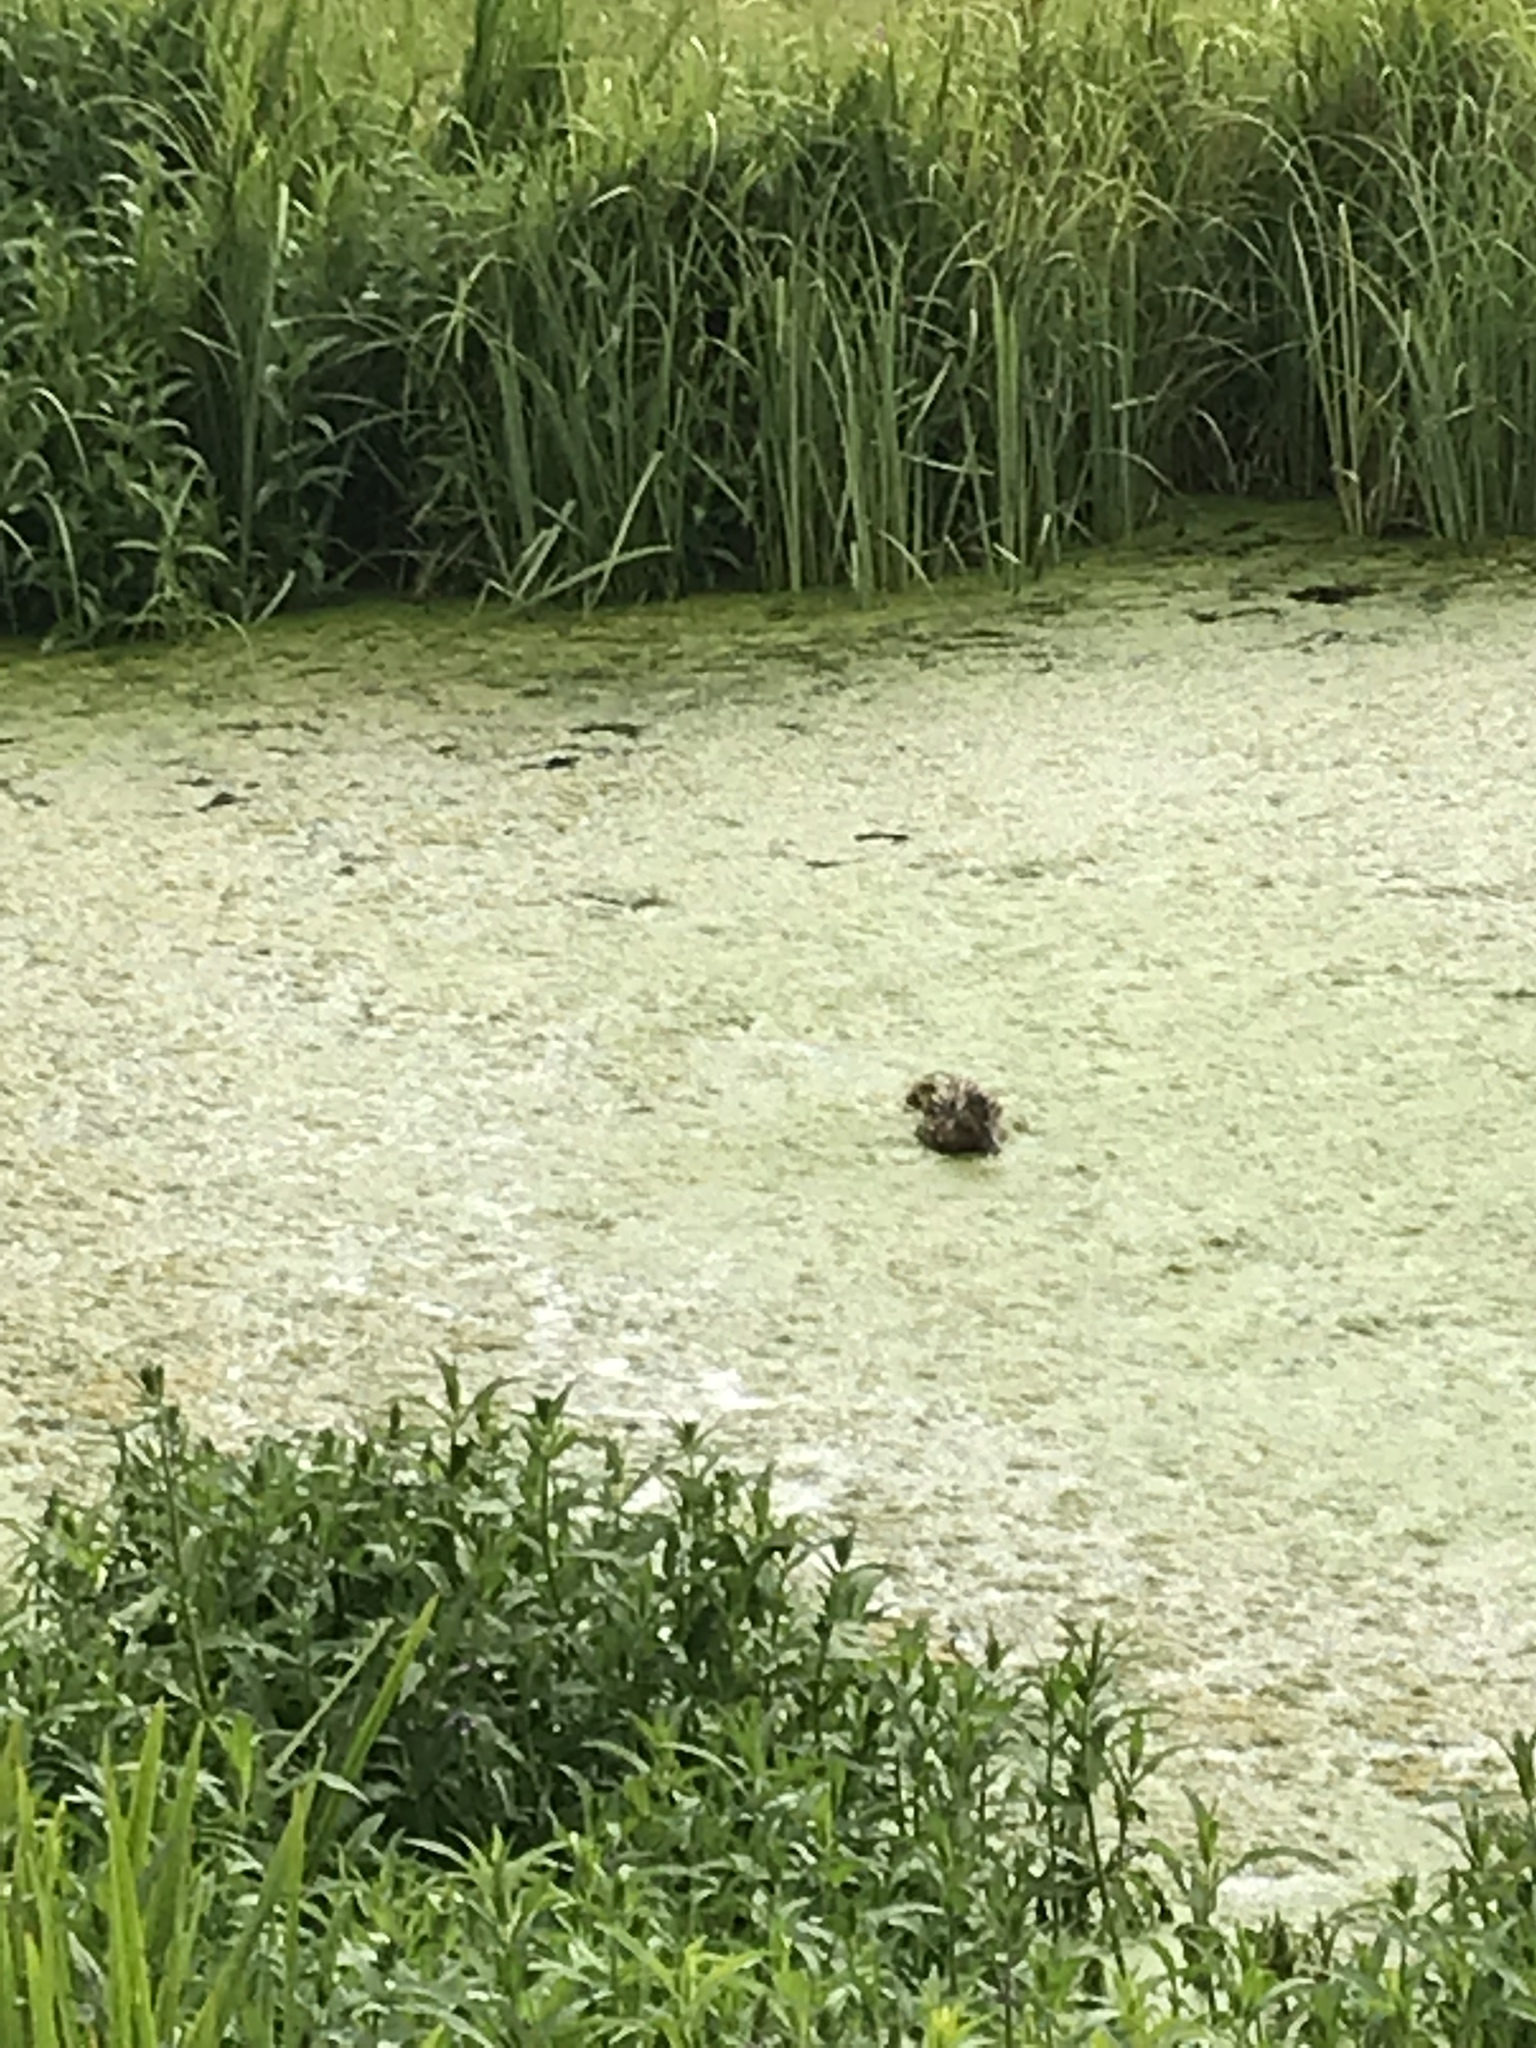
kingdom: Animalia
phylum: Chordata
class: Aves
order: Anseriformes
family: Anatidae
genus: Anas
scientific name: Anas platyrhynchos
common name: Mallard
